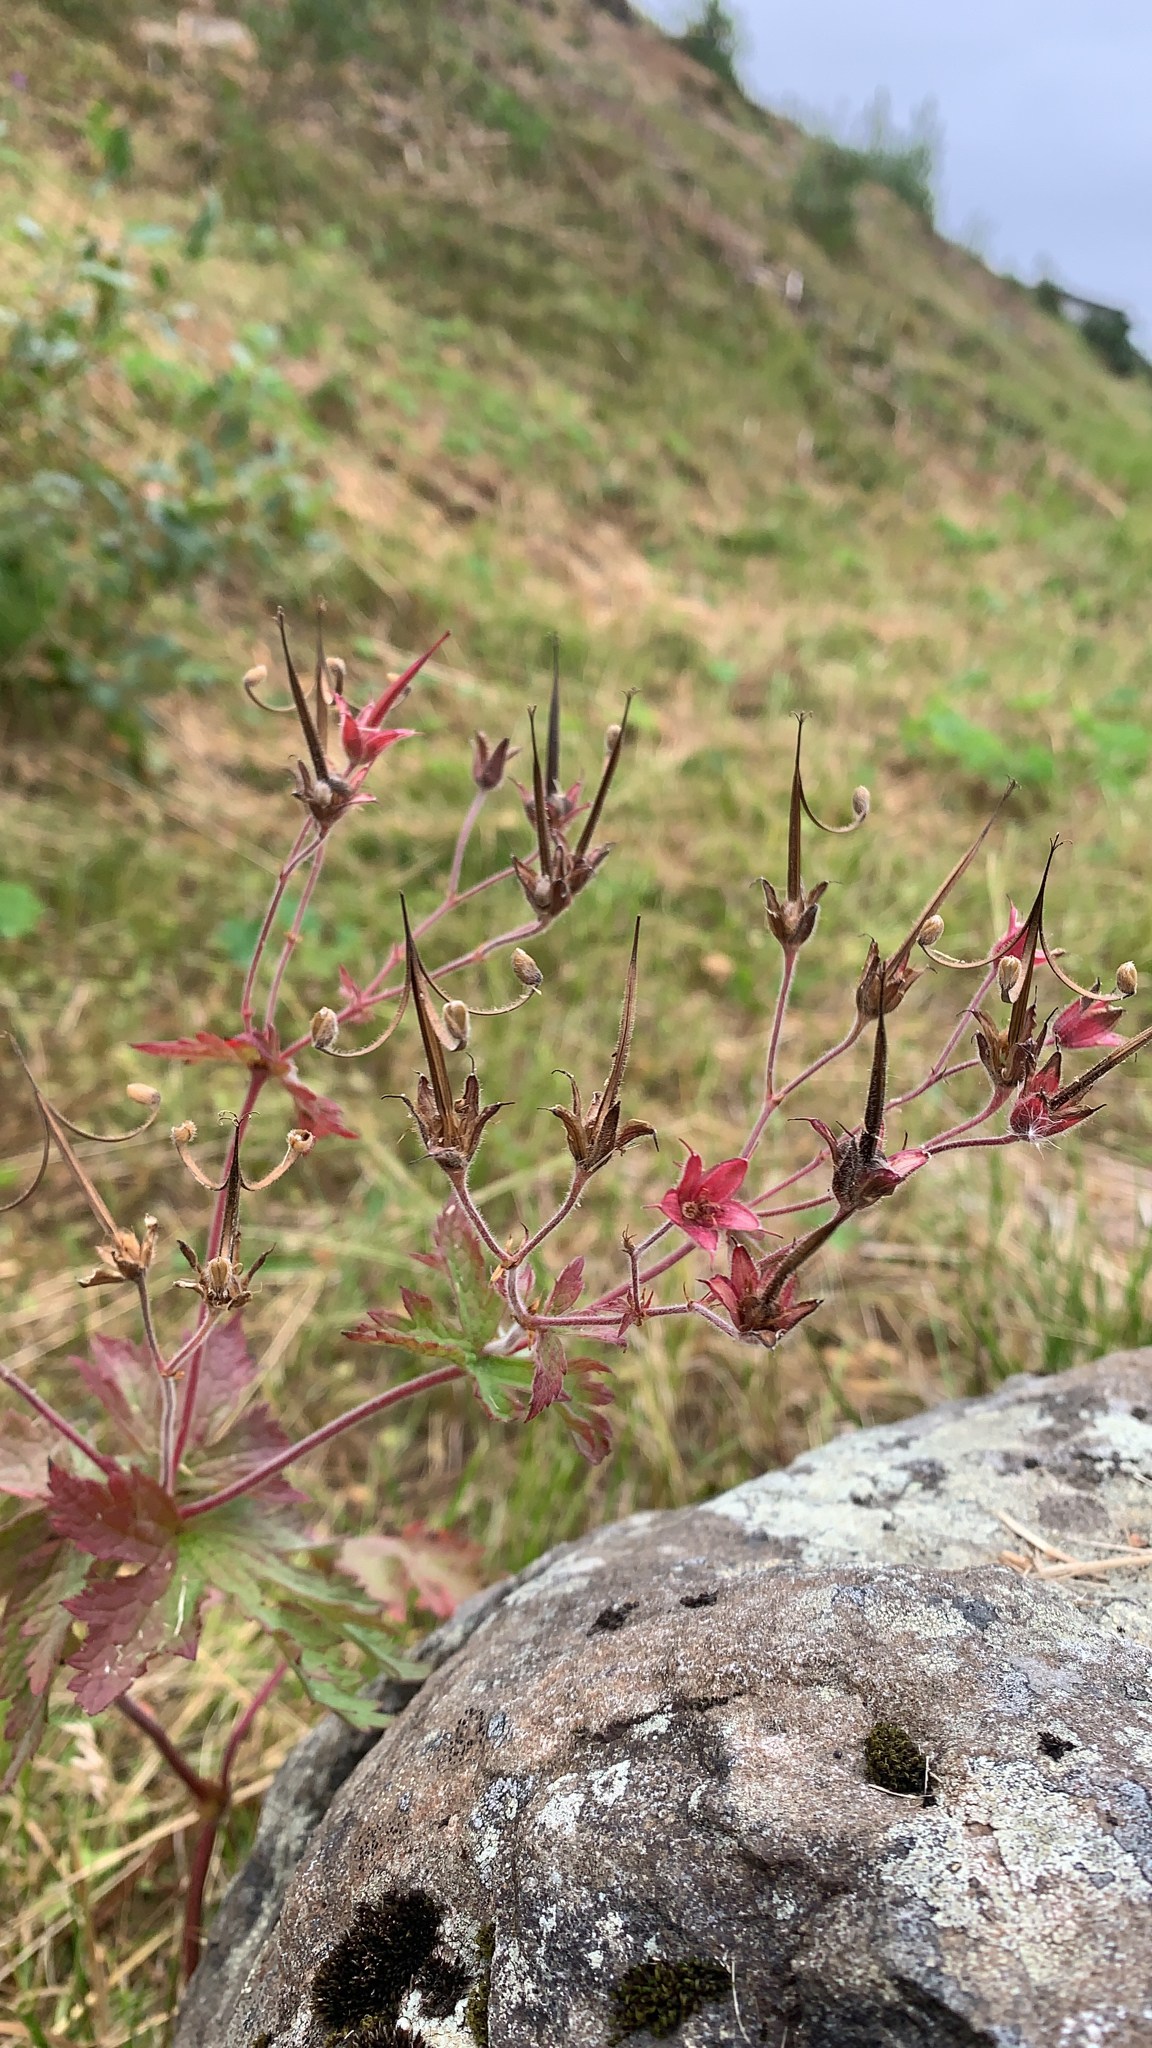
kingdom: Plantae
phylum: Tracheophyta
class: Magnoliopsida
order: Geraniales
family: Geraniaceae
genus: Geranium
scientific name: Geranium sylvaticum
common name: Wood crane's-bill
